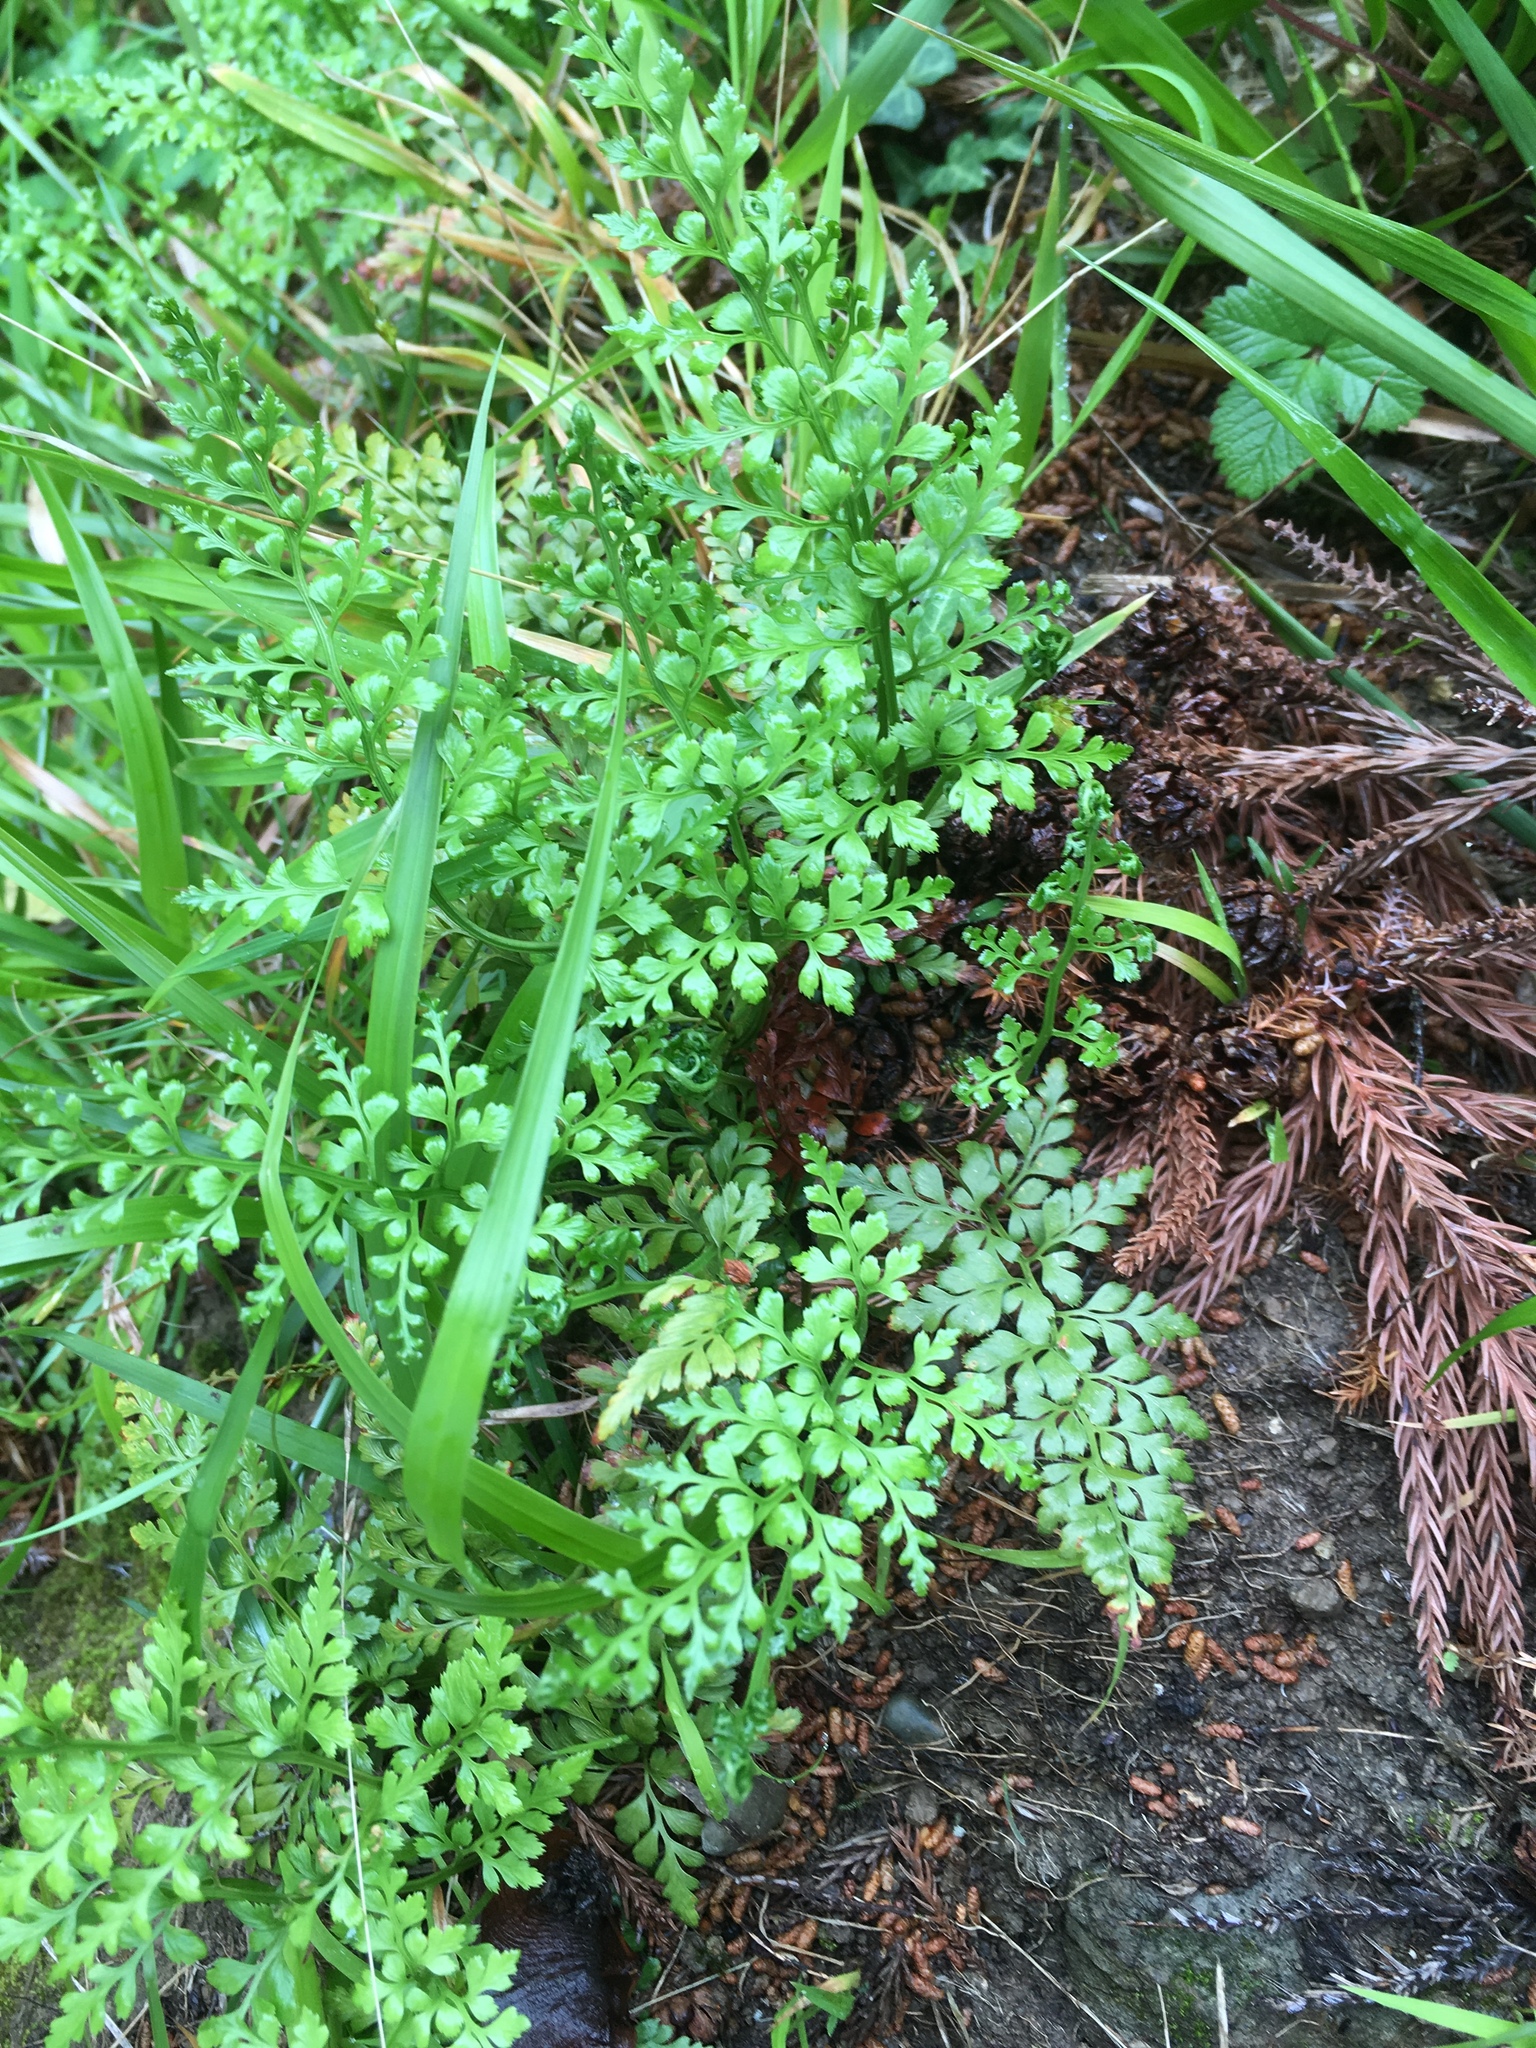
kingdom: Plantae
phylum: Tracheophyta
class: Polypodiopsida
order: Polypodiales
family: Aspleniaceae
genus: Asplenium
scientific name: Asplenium adiantum-nigrum
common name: Black spleenwort
